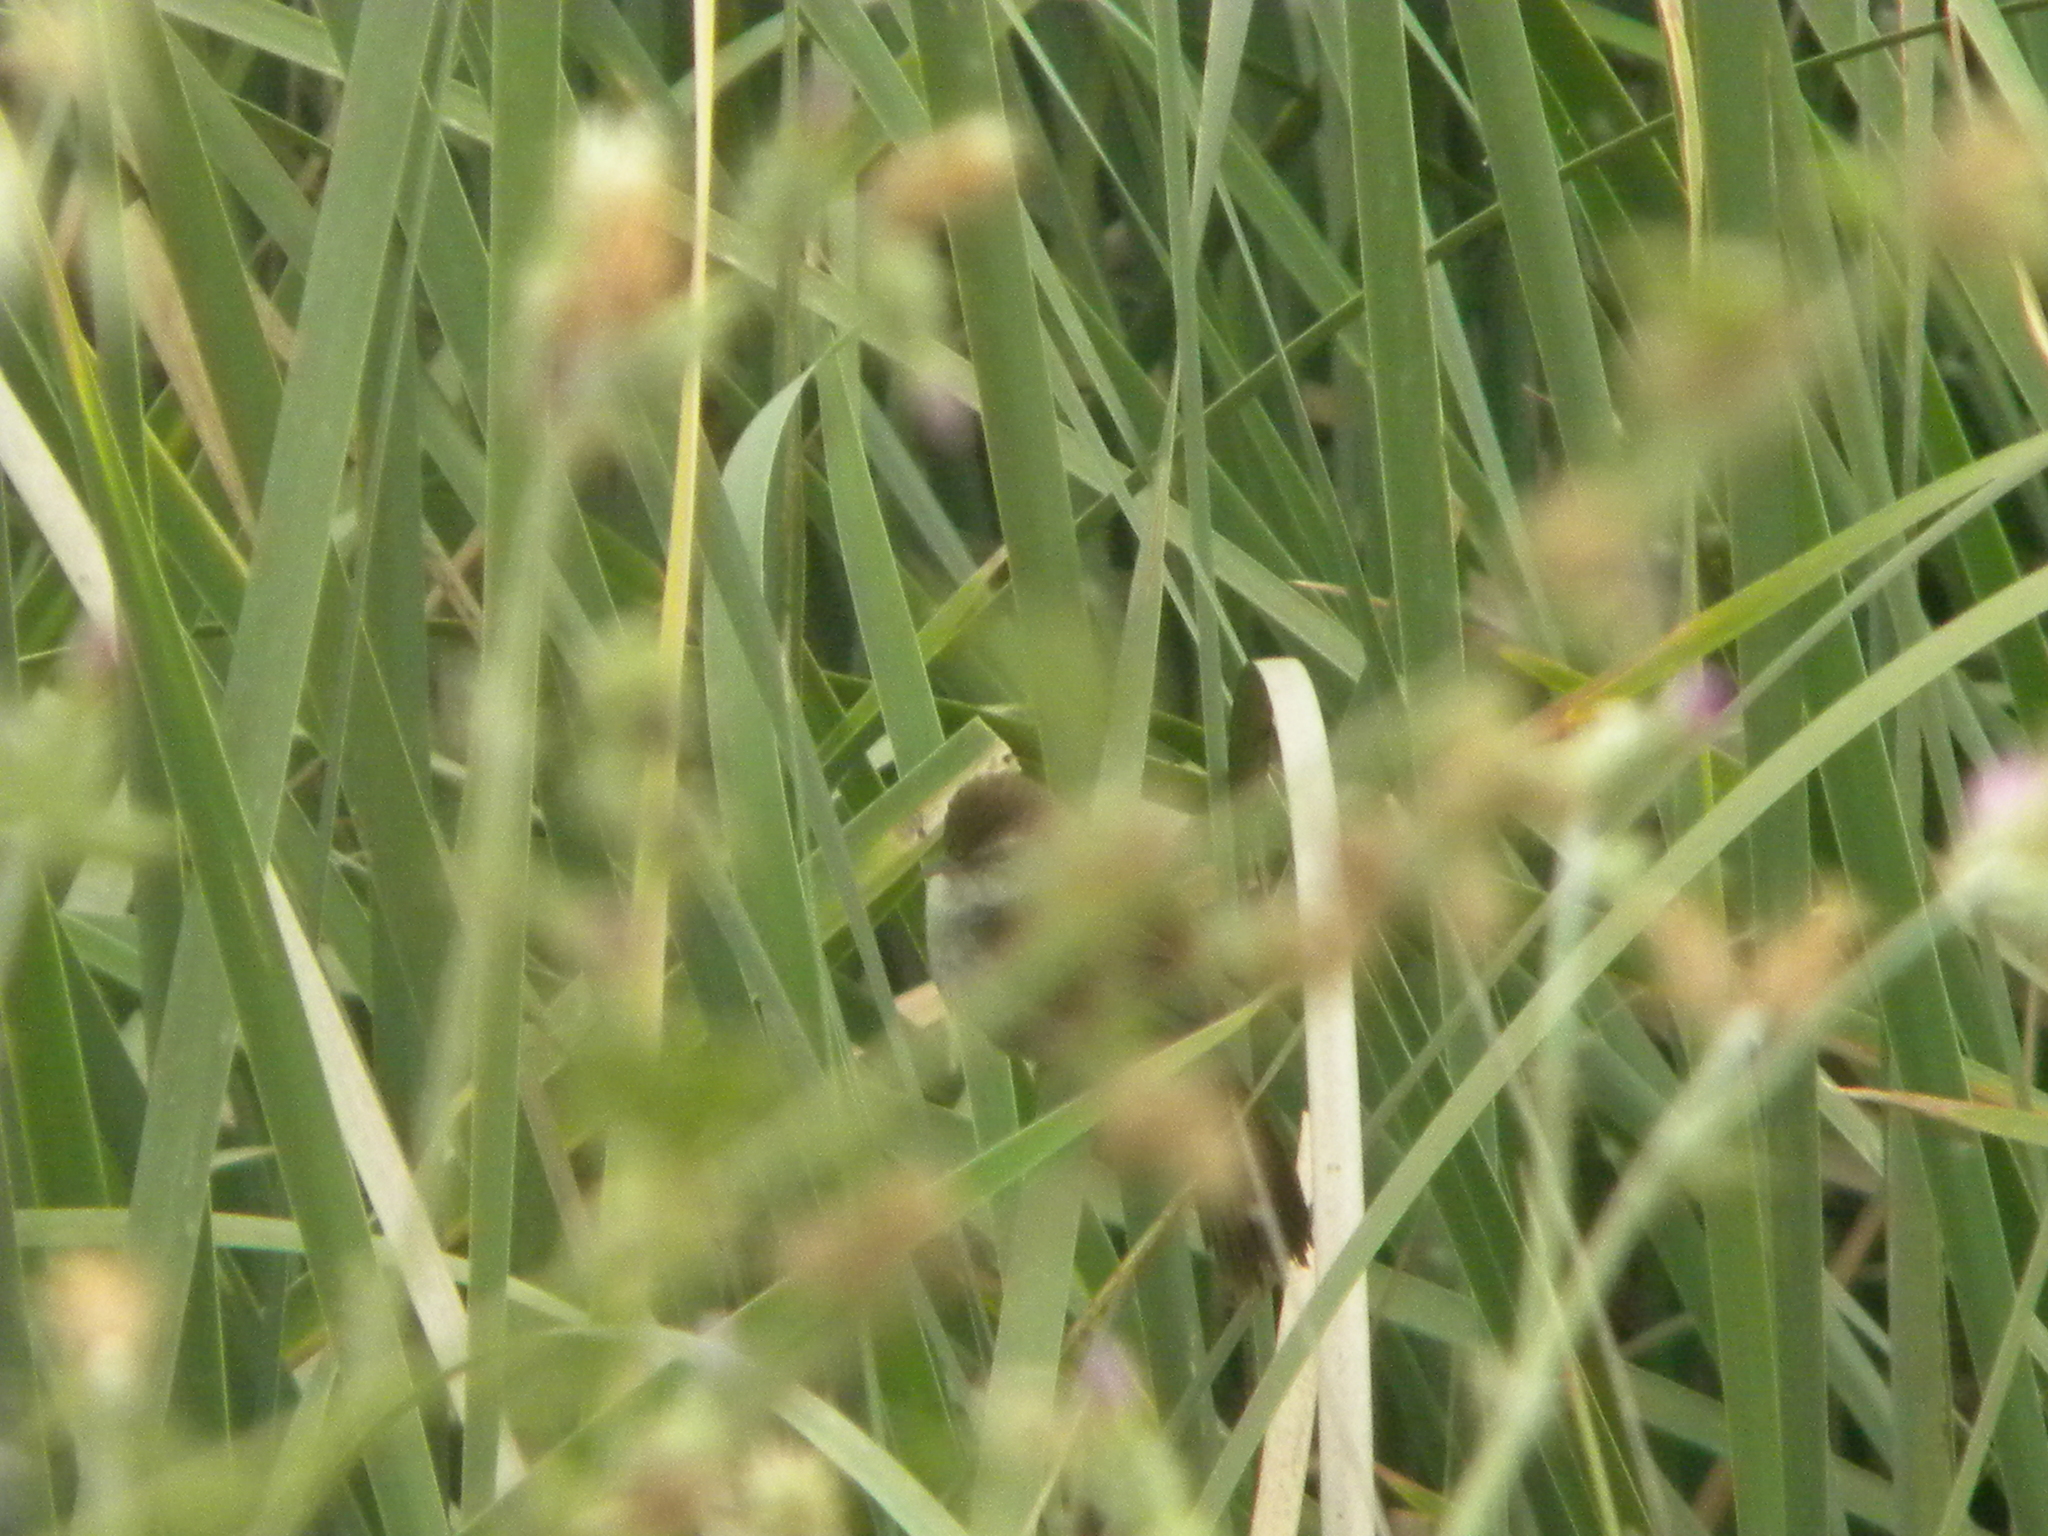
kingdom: Animalia
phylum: Chordata
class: Aves
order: Passeriformes
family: Cettiidae
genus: Cettia
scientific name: Cettia cetti
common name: Cetti's warbler
